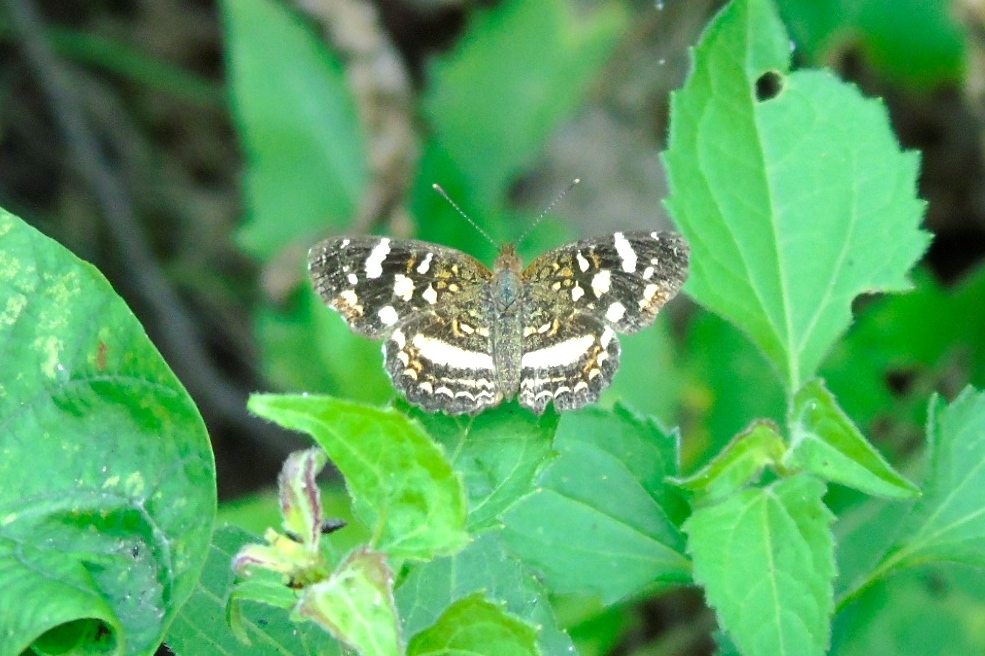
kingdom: Animalia
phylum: Arthropoda
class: Insecta
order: Lepidoptera
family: Nymphalidae
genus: Anthanassa
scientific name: Anthanassa tulcis
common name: Pale-banded crescent
